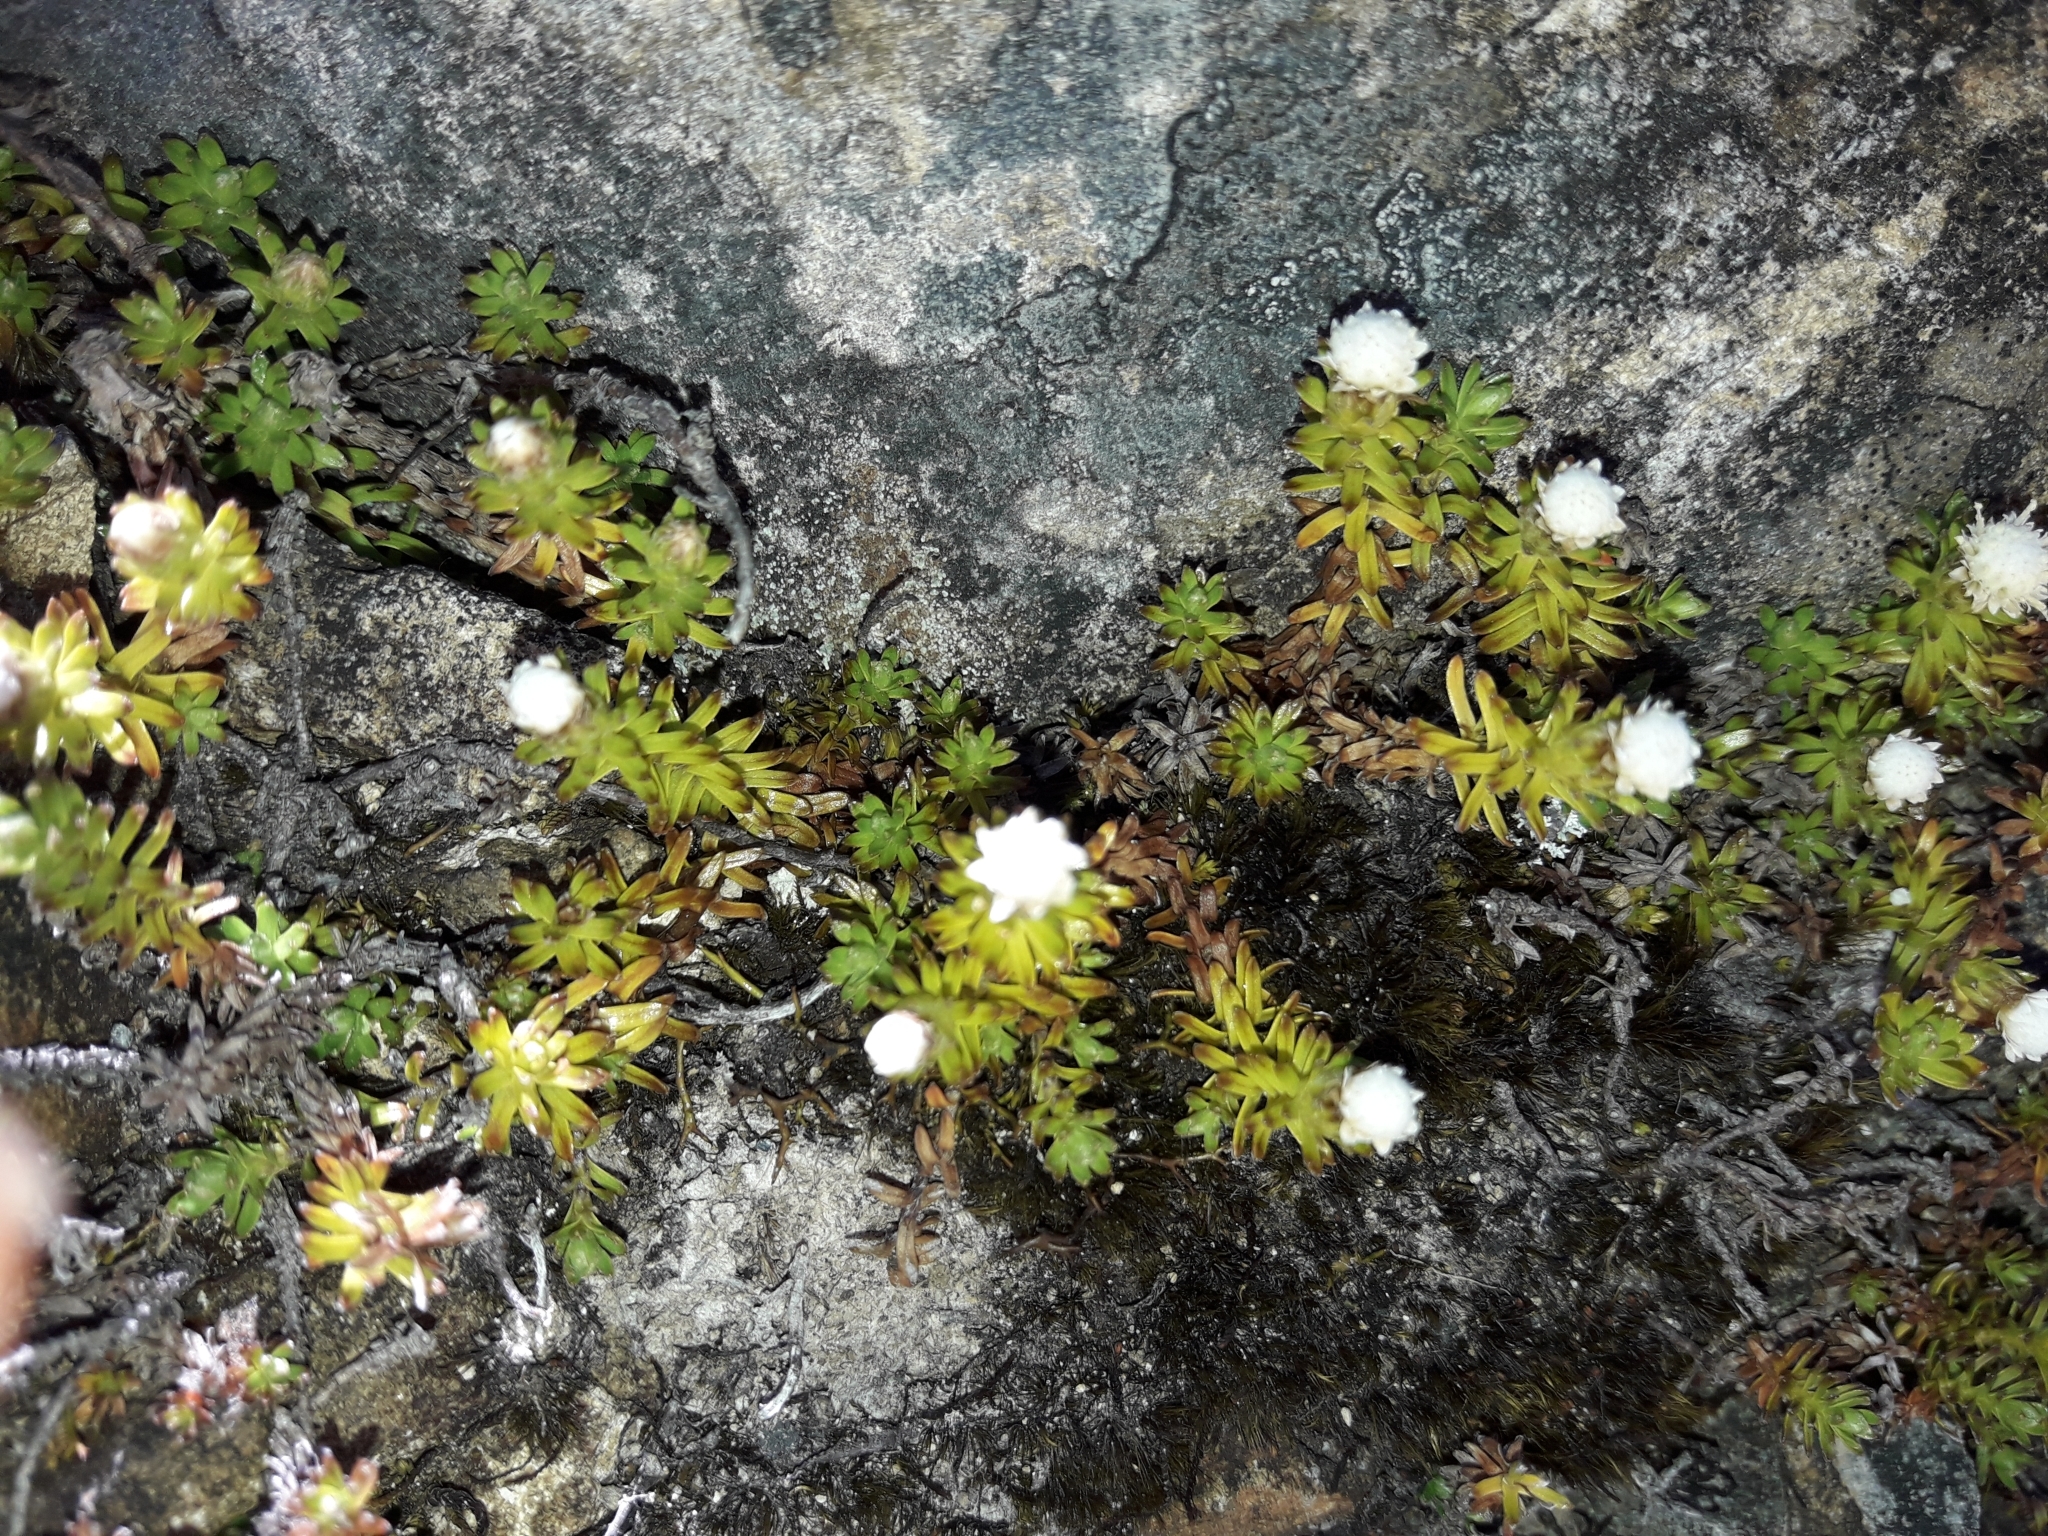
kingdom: Plantae
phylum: Tracheophyta
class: Magnoliopsida
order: Asterales
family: Asteraceae
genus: Raoulia
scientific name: Raoulia glabra
